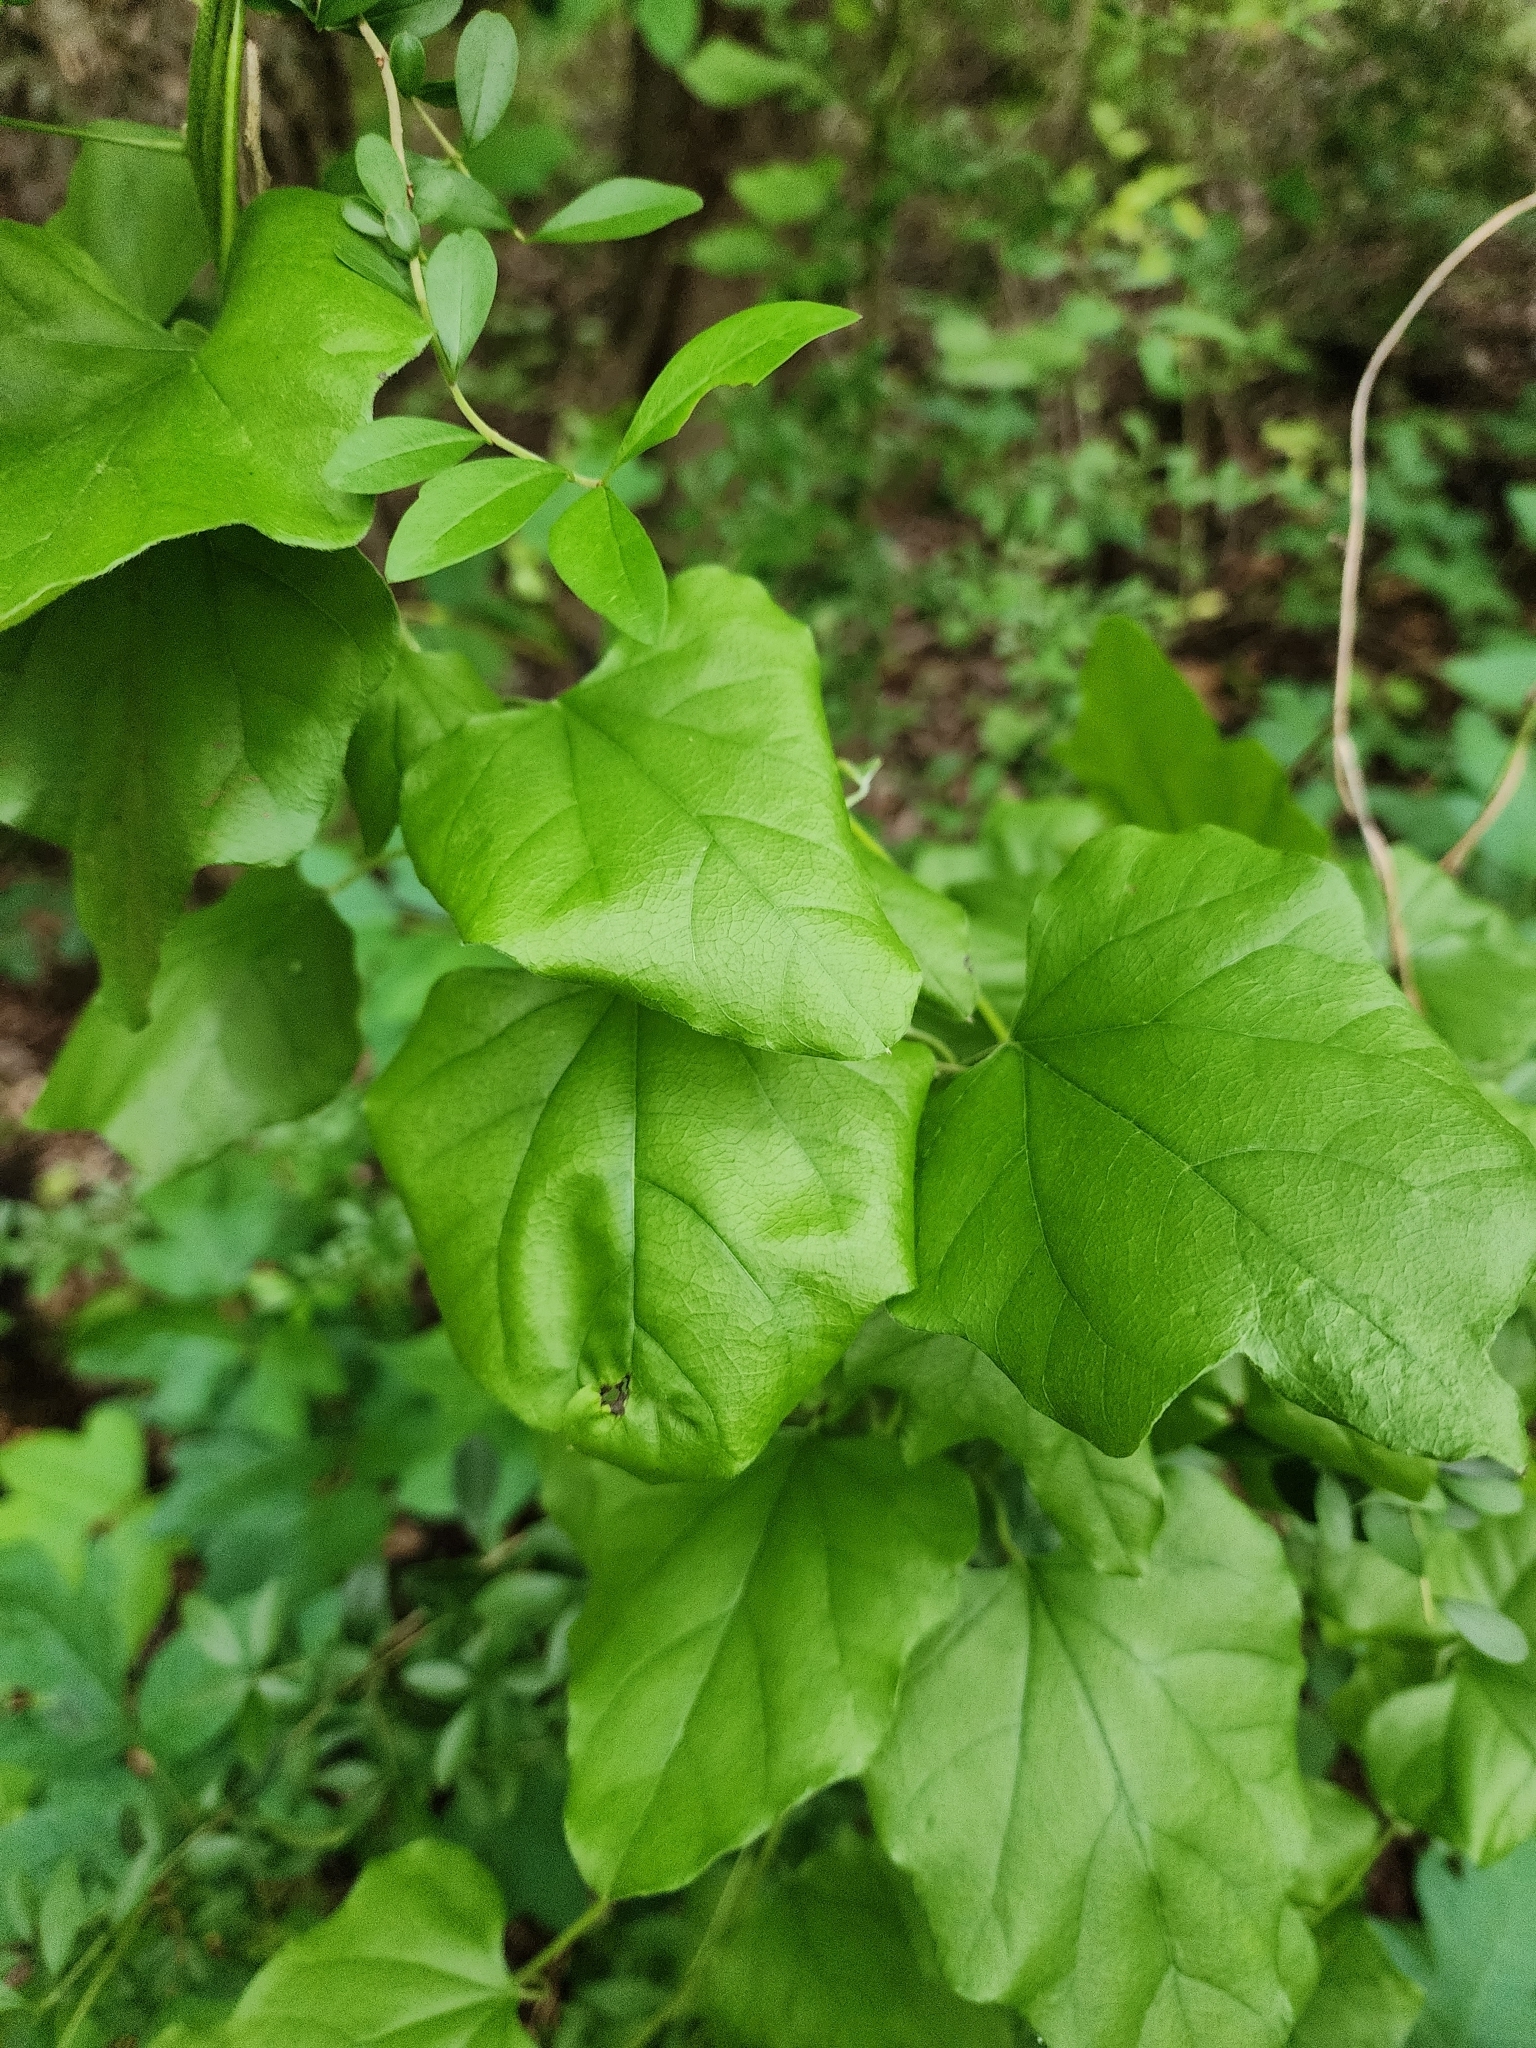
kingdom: Plantae
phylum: Tracheophyta
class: Magnoliopsida
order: Ranunculales
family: Menispermaceae
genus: Cocculus
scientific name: Cocculus carolinus
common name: Carolina moonseed
